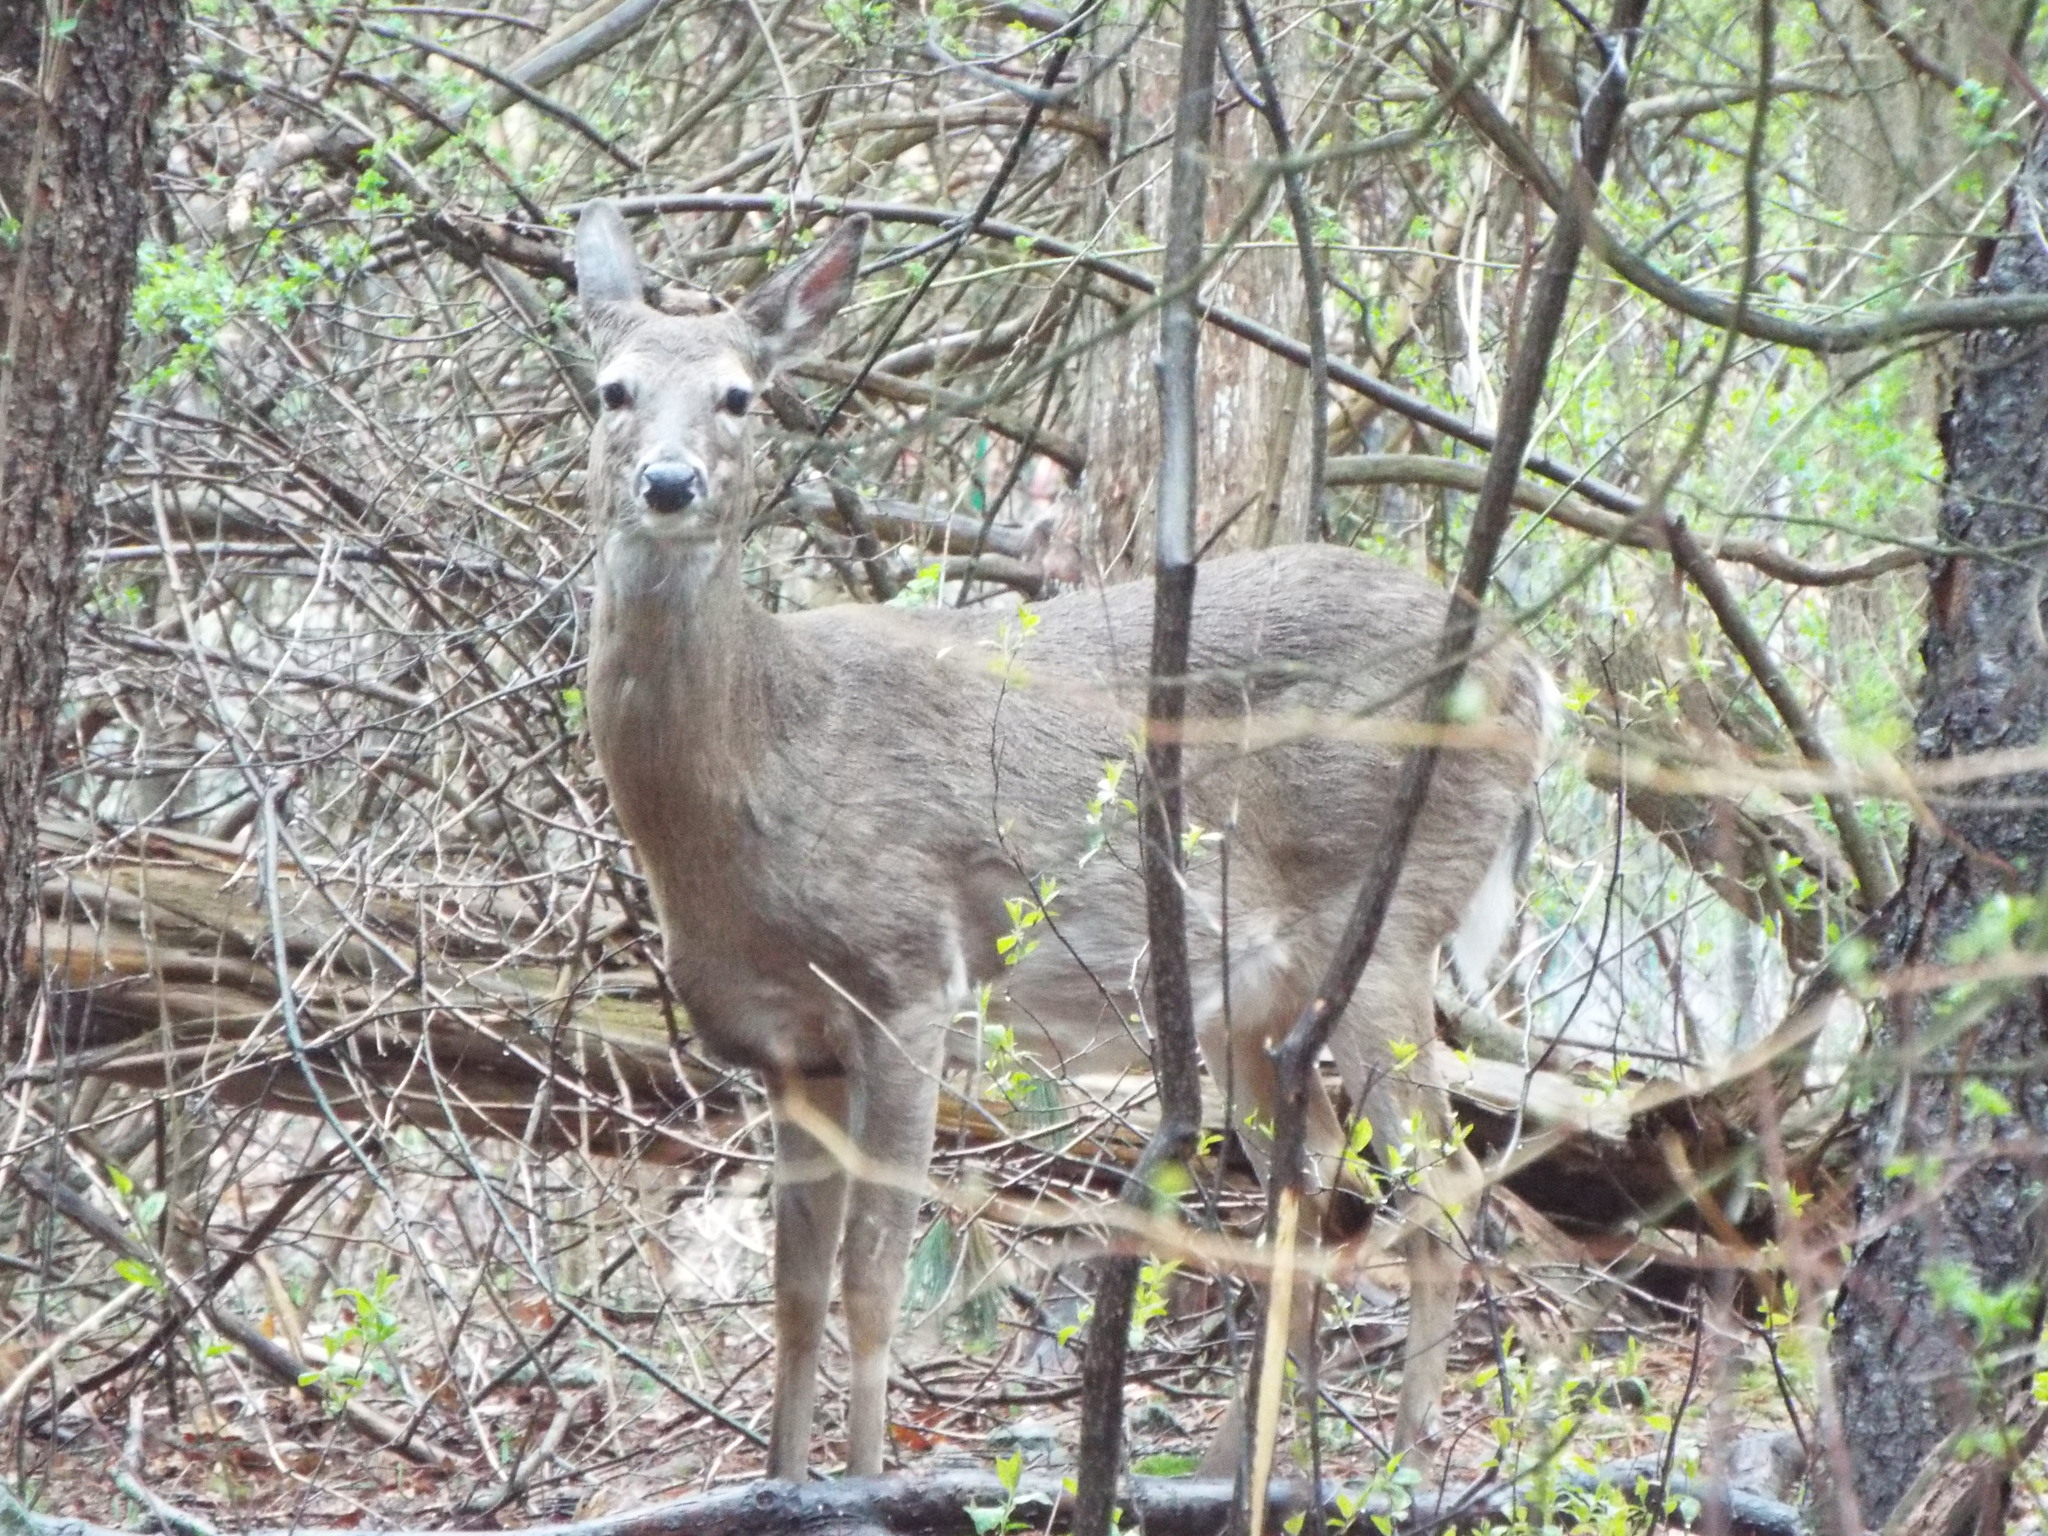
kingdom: Animalia
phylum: Chordata
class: Mammalia
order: Artiodactyla
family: Cervidae
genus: Odocoileus
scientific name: Odocoileus virginianus
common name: White-tailed deer
